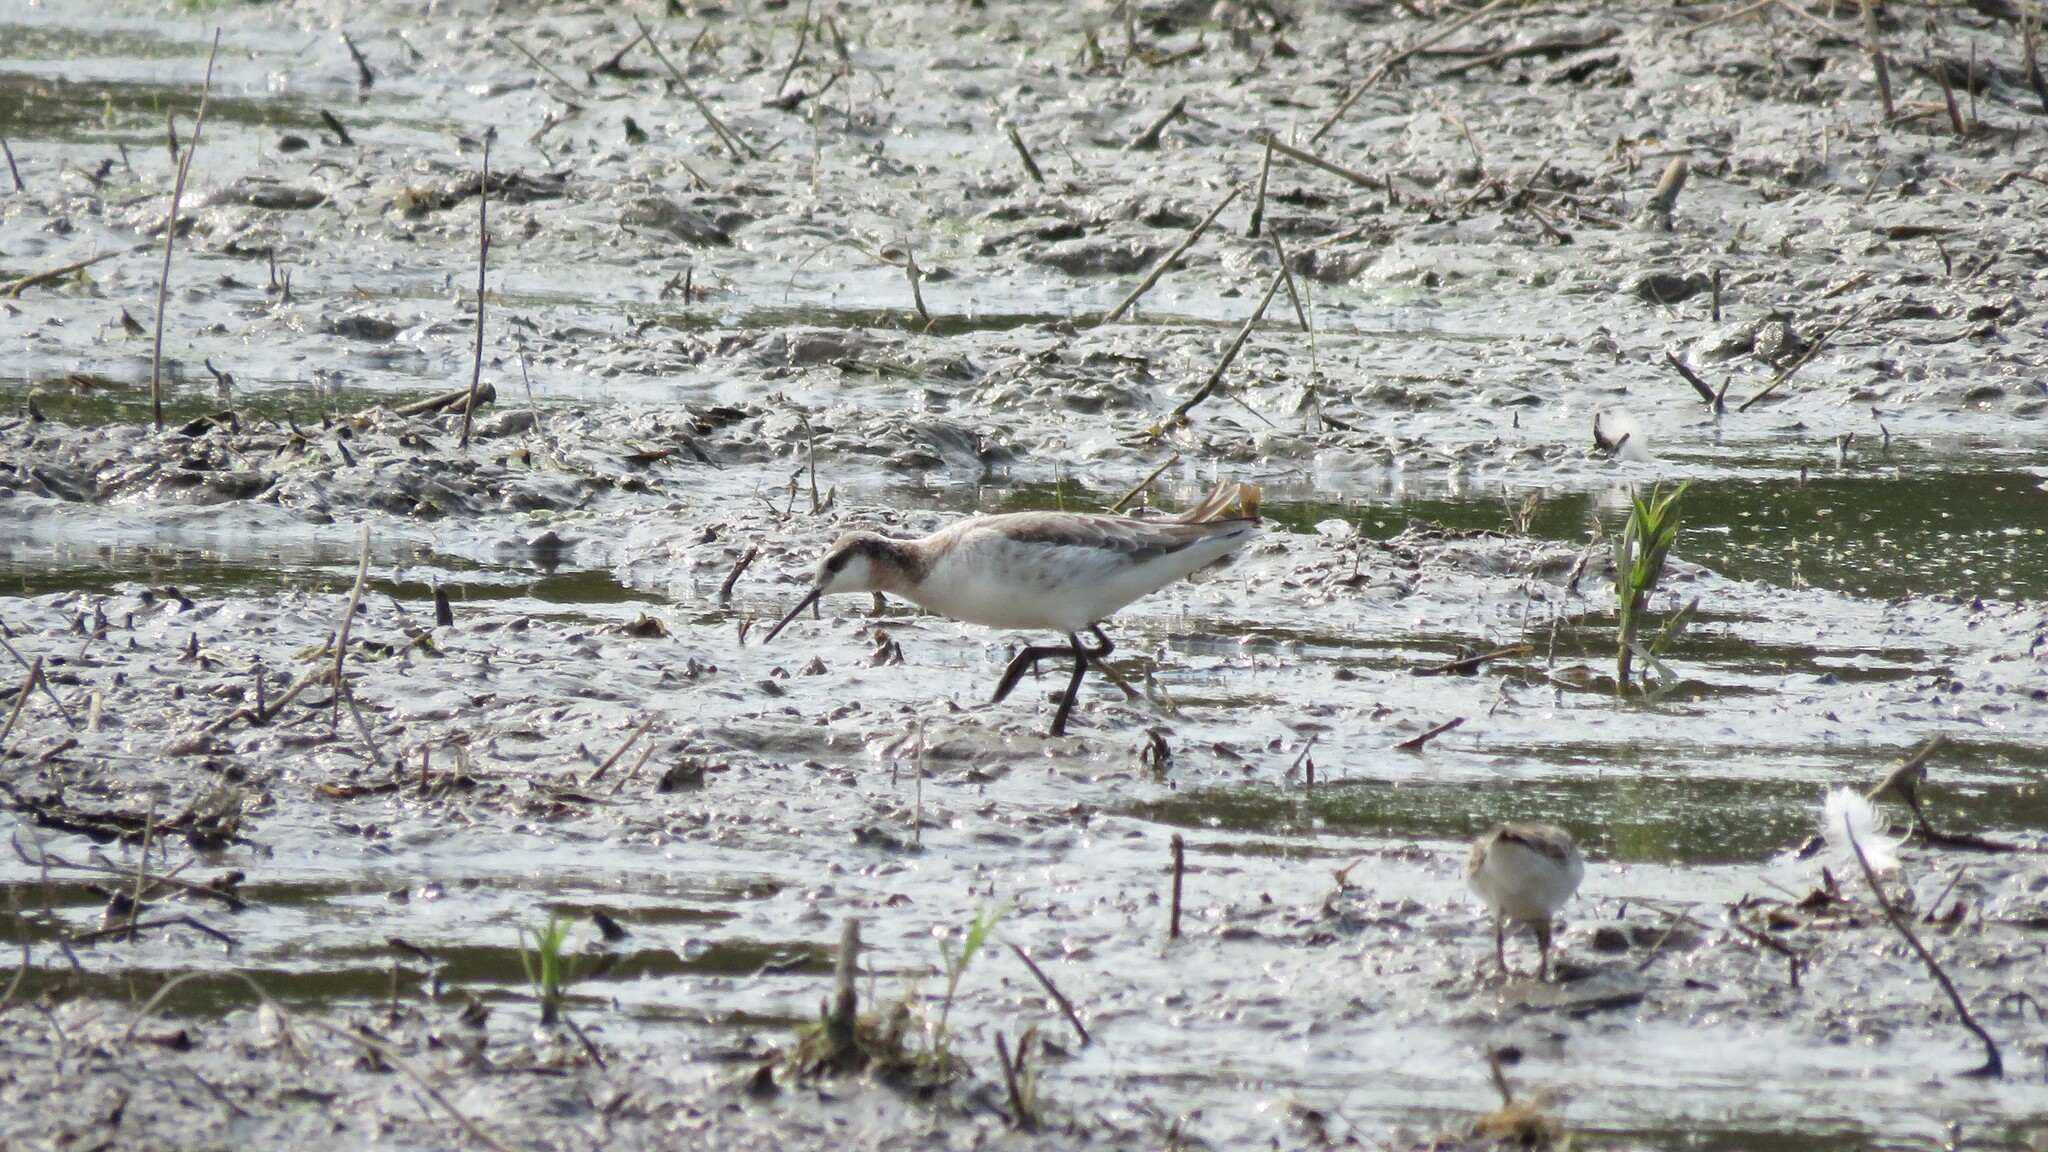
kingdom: Animalia
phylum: Chordata
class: Aves
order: Charadriiformes
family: Scolopacidae
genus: Phalaropus
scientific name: Phalaropus tricolor
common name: Wilson's phalarope
